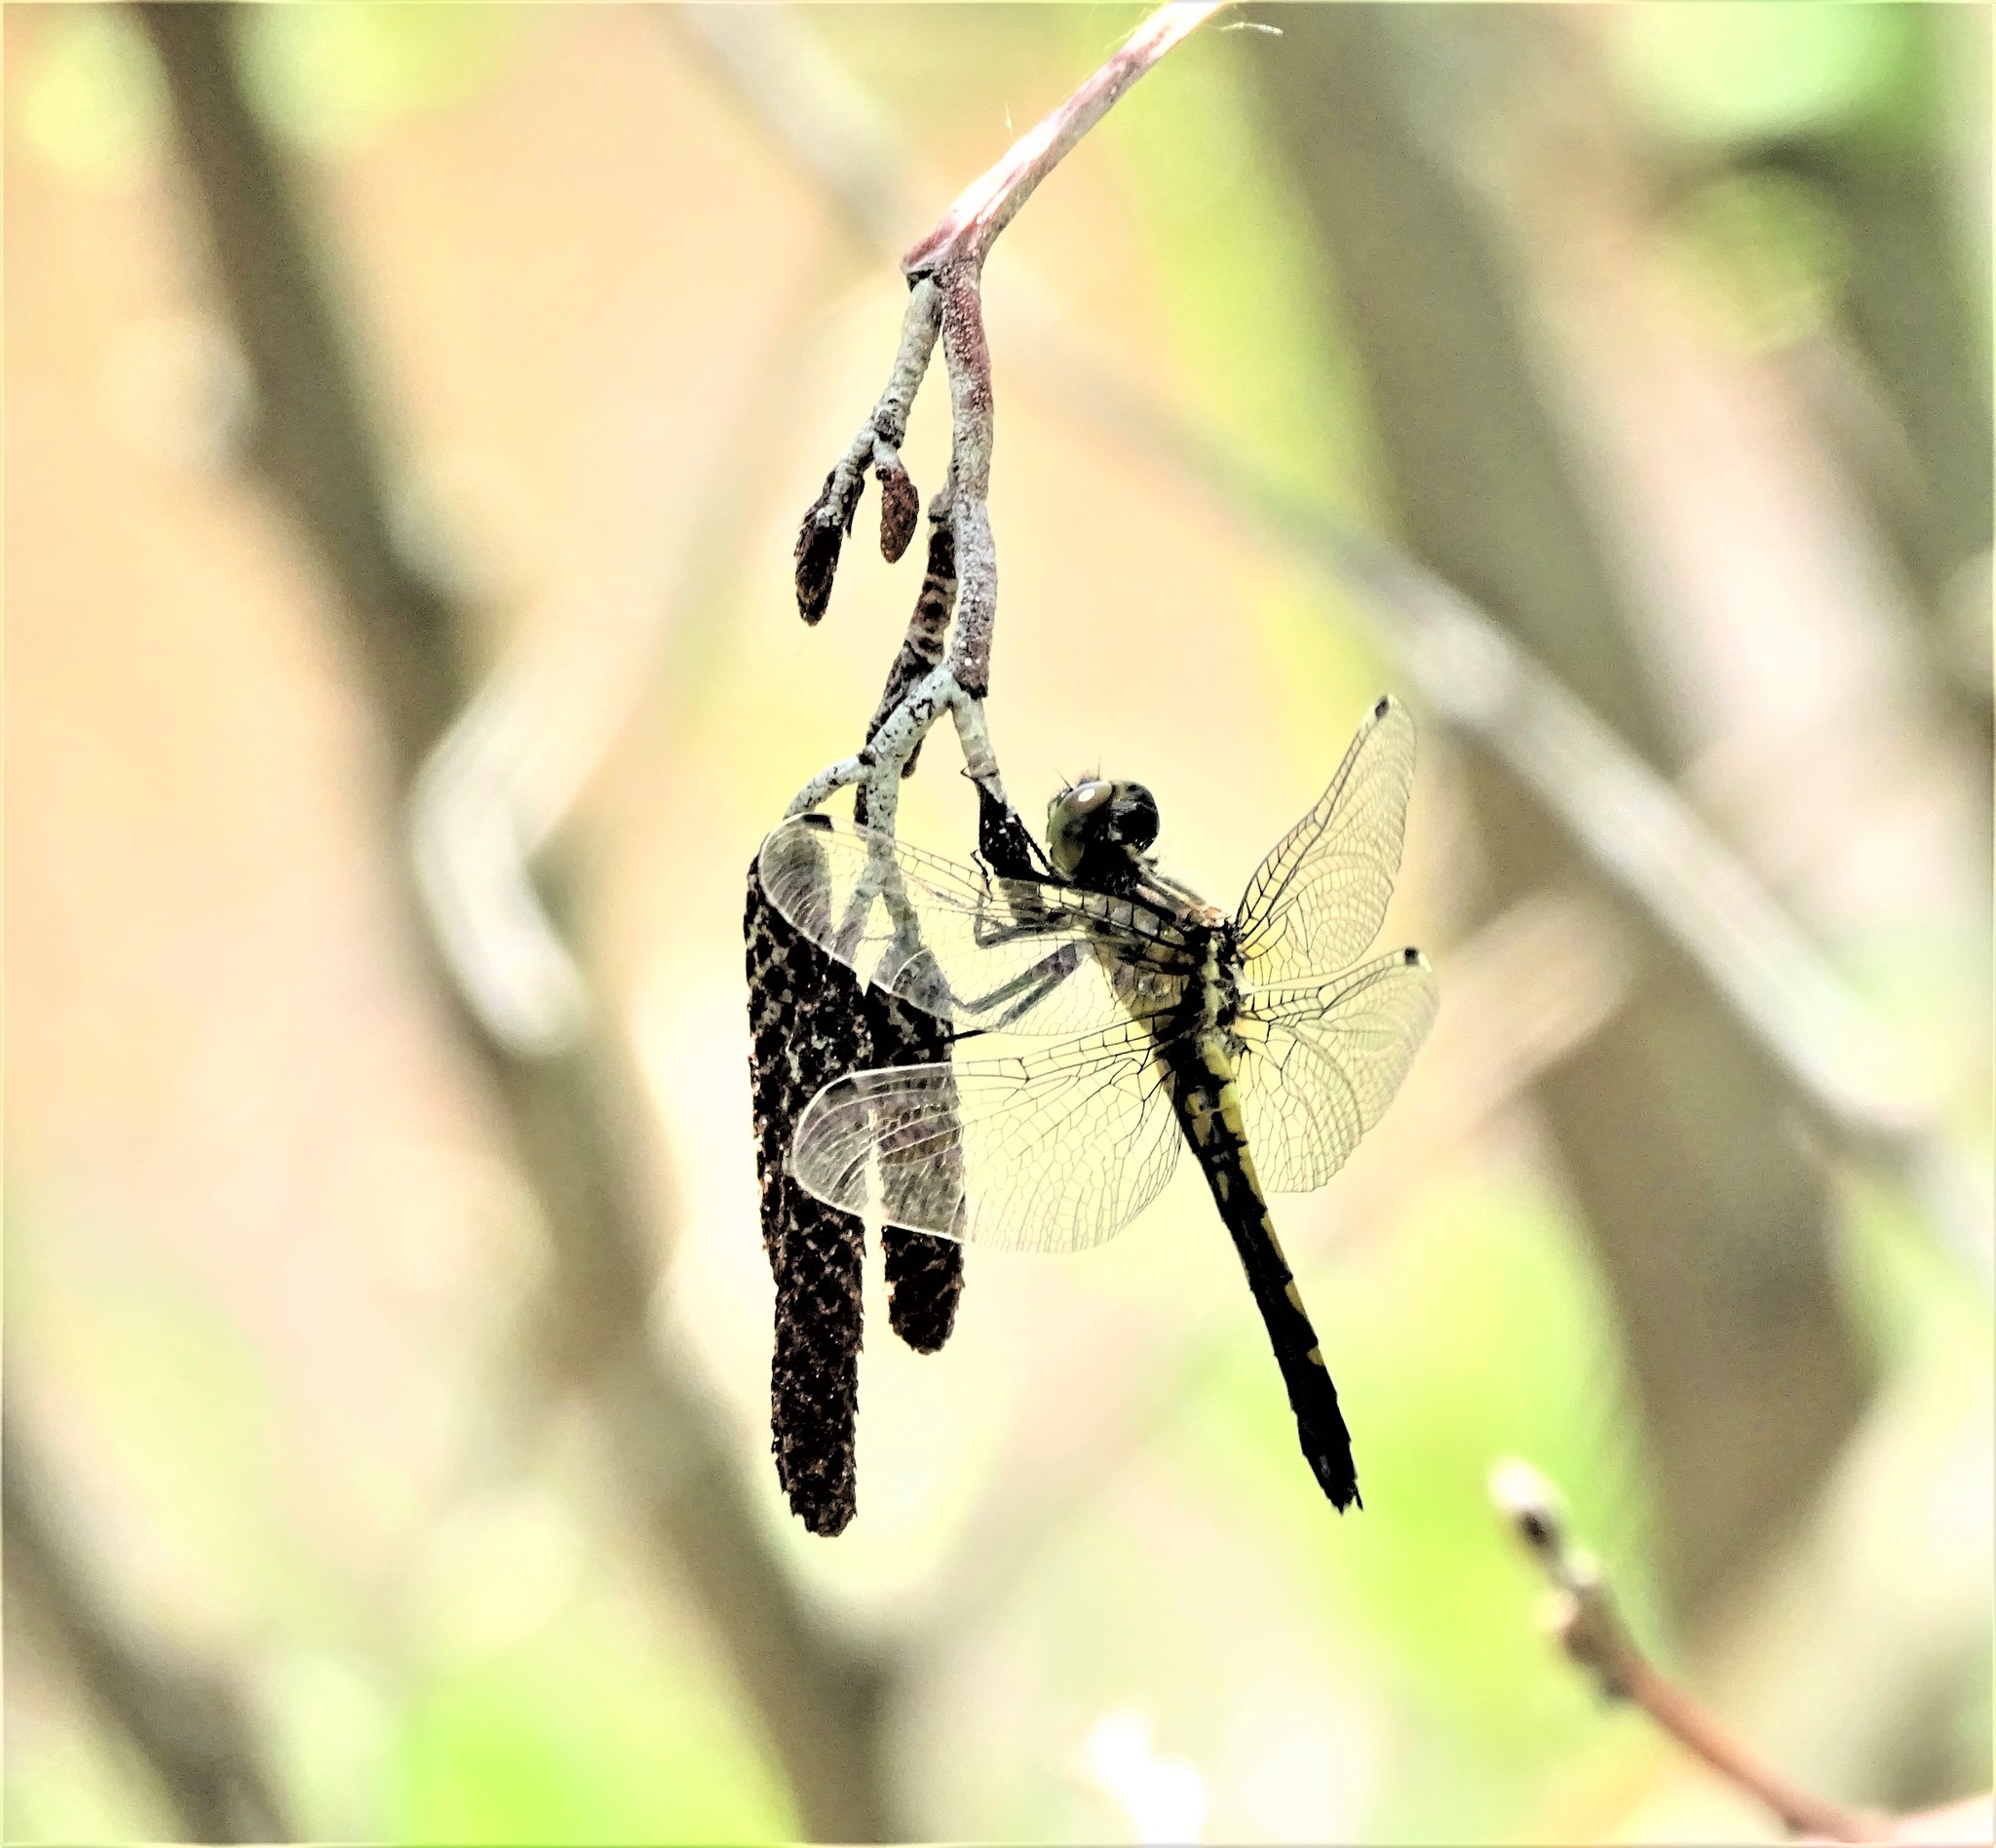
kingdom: Animalia
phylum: Arthropoda
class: Insecta
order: Odonata
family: Libellulidae
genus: Leucorrhinia
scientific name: Leucorrhinia intacta
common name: Dot-tailed whiteface
